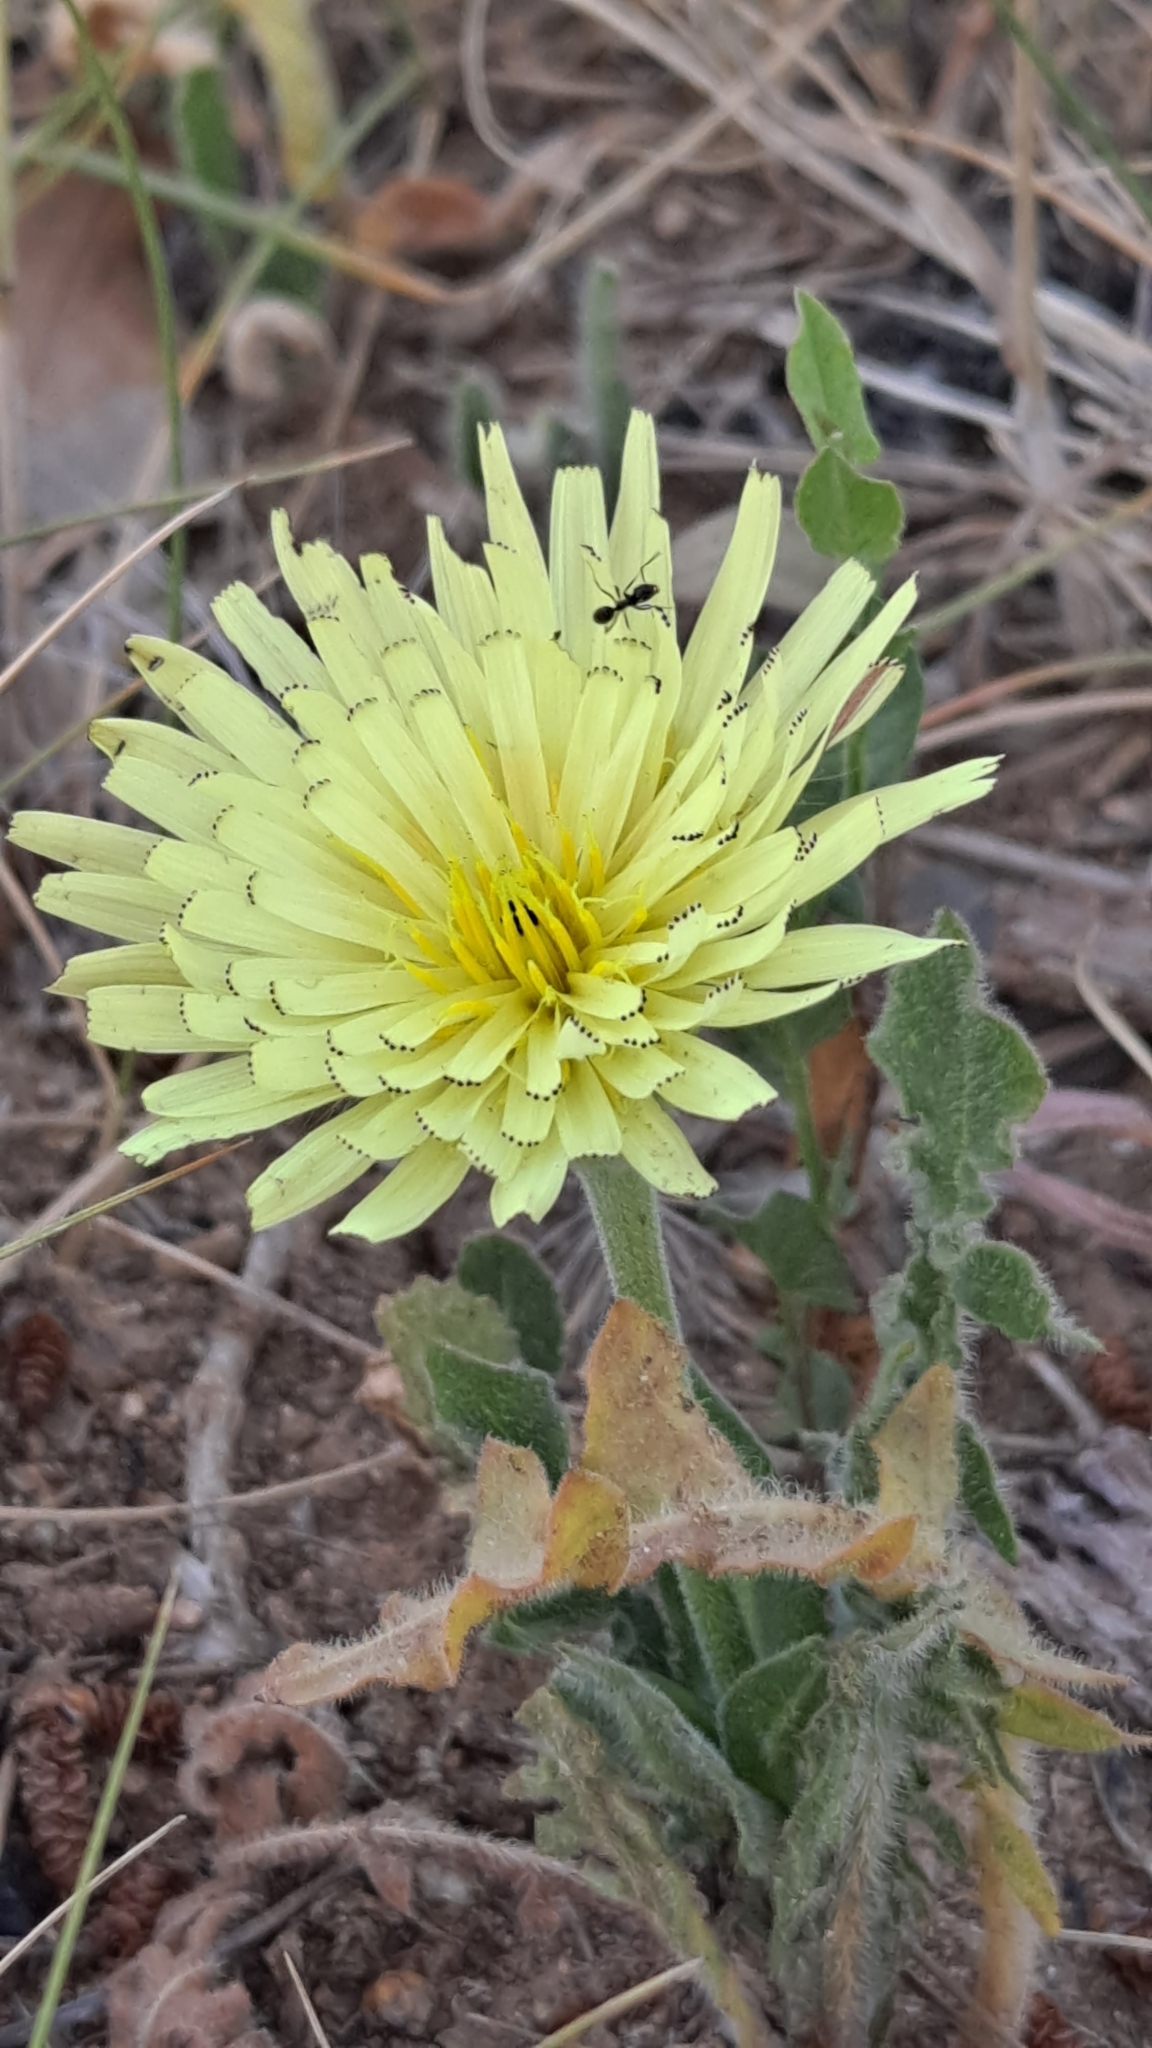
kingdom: Plantae
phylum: Tracheophyta
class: Magnoliopsida
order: Asterales
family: Asteraceae
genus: Urospermum
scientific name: Urospermum dalechampii
